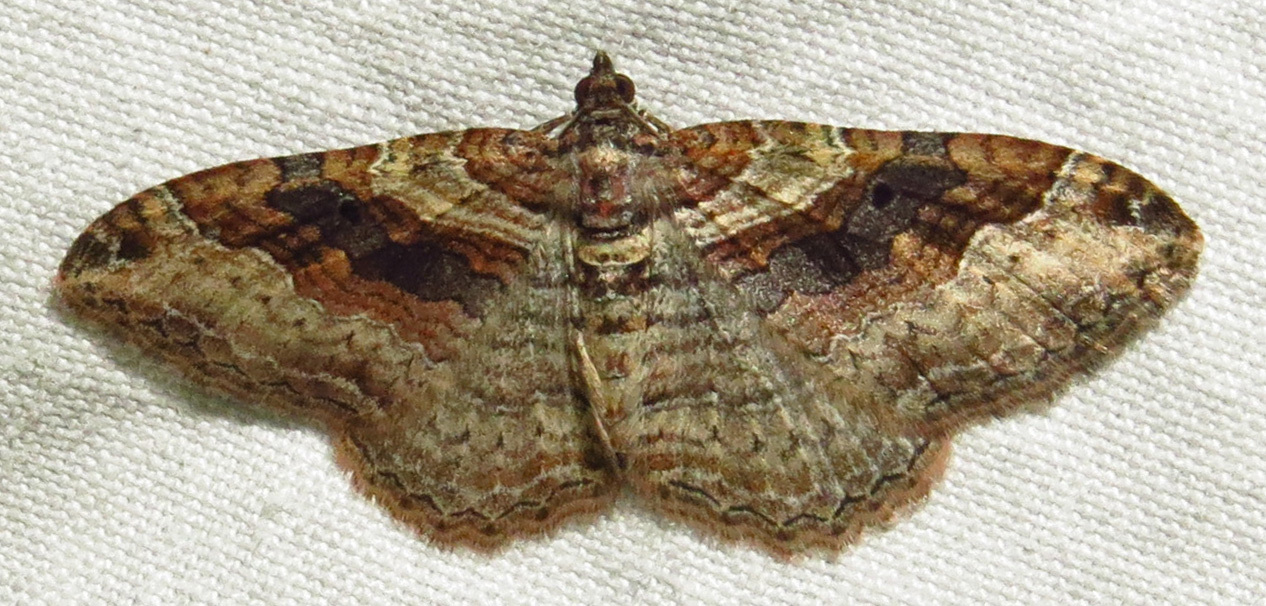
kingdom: Animalia
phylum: Arthropoda
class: Insecta
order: Lepidoptera
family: Geometridae
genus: Costaconvexa
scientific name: Costaconvexa centrostrigaria
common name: Bent-line carpet
